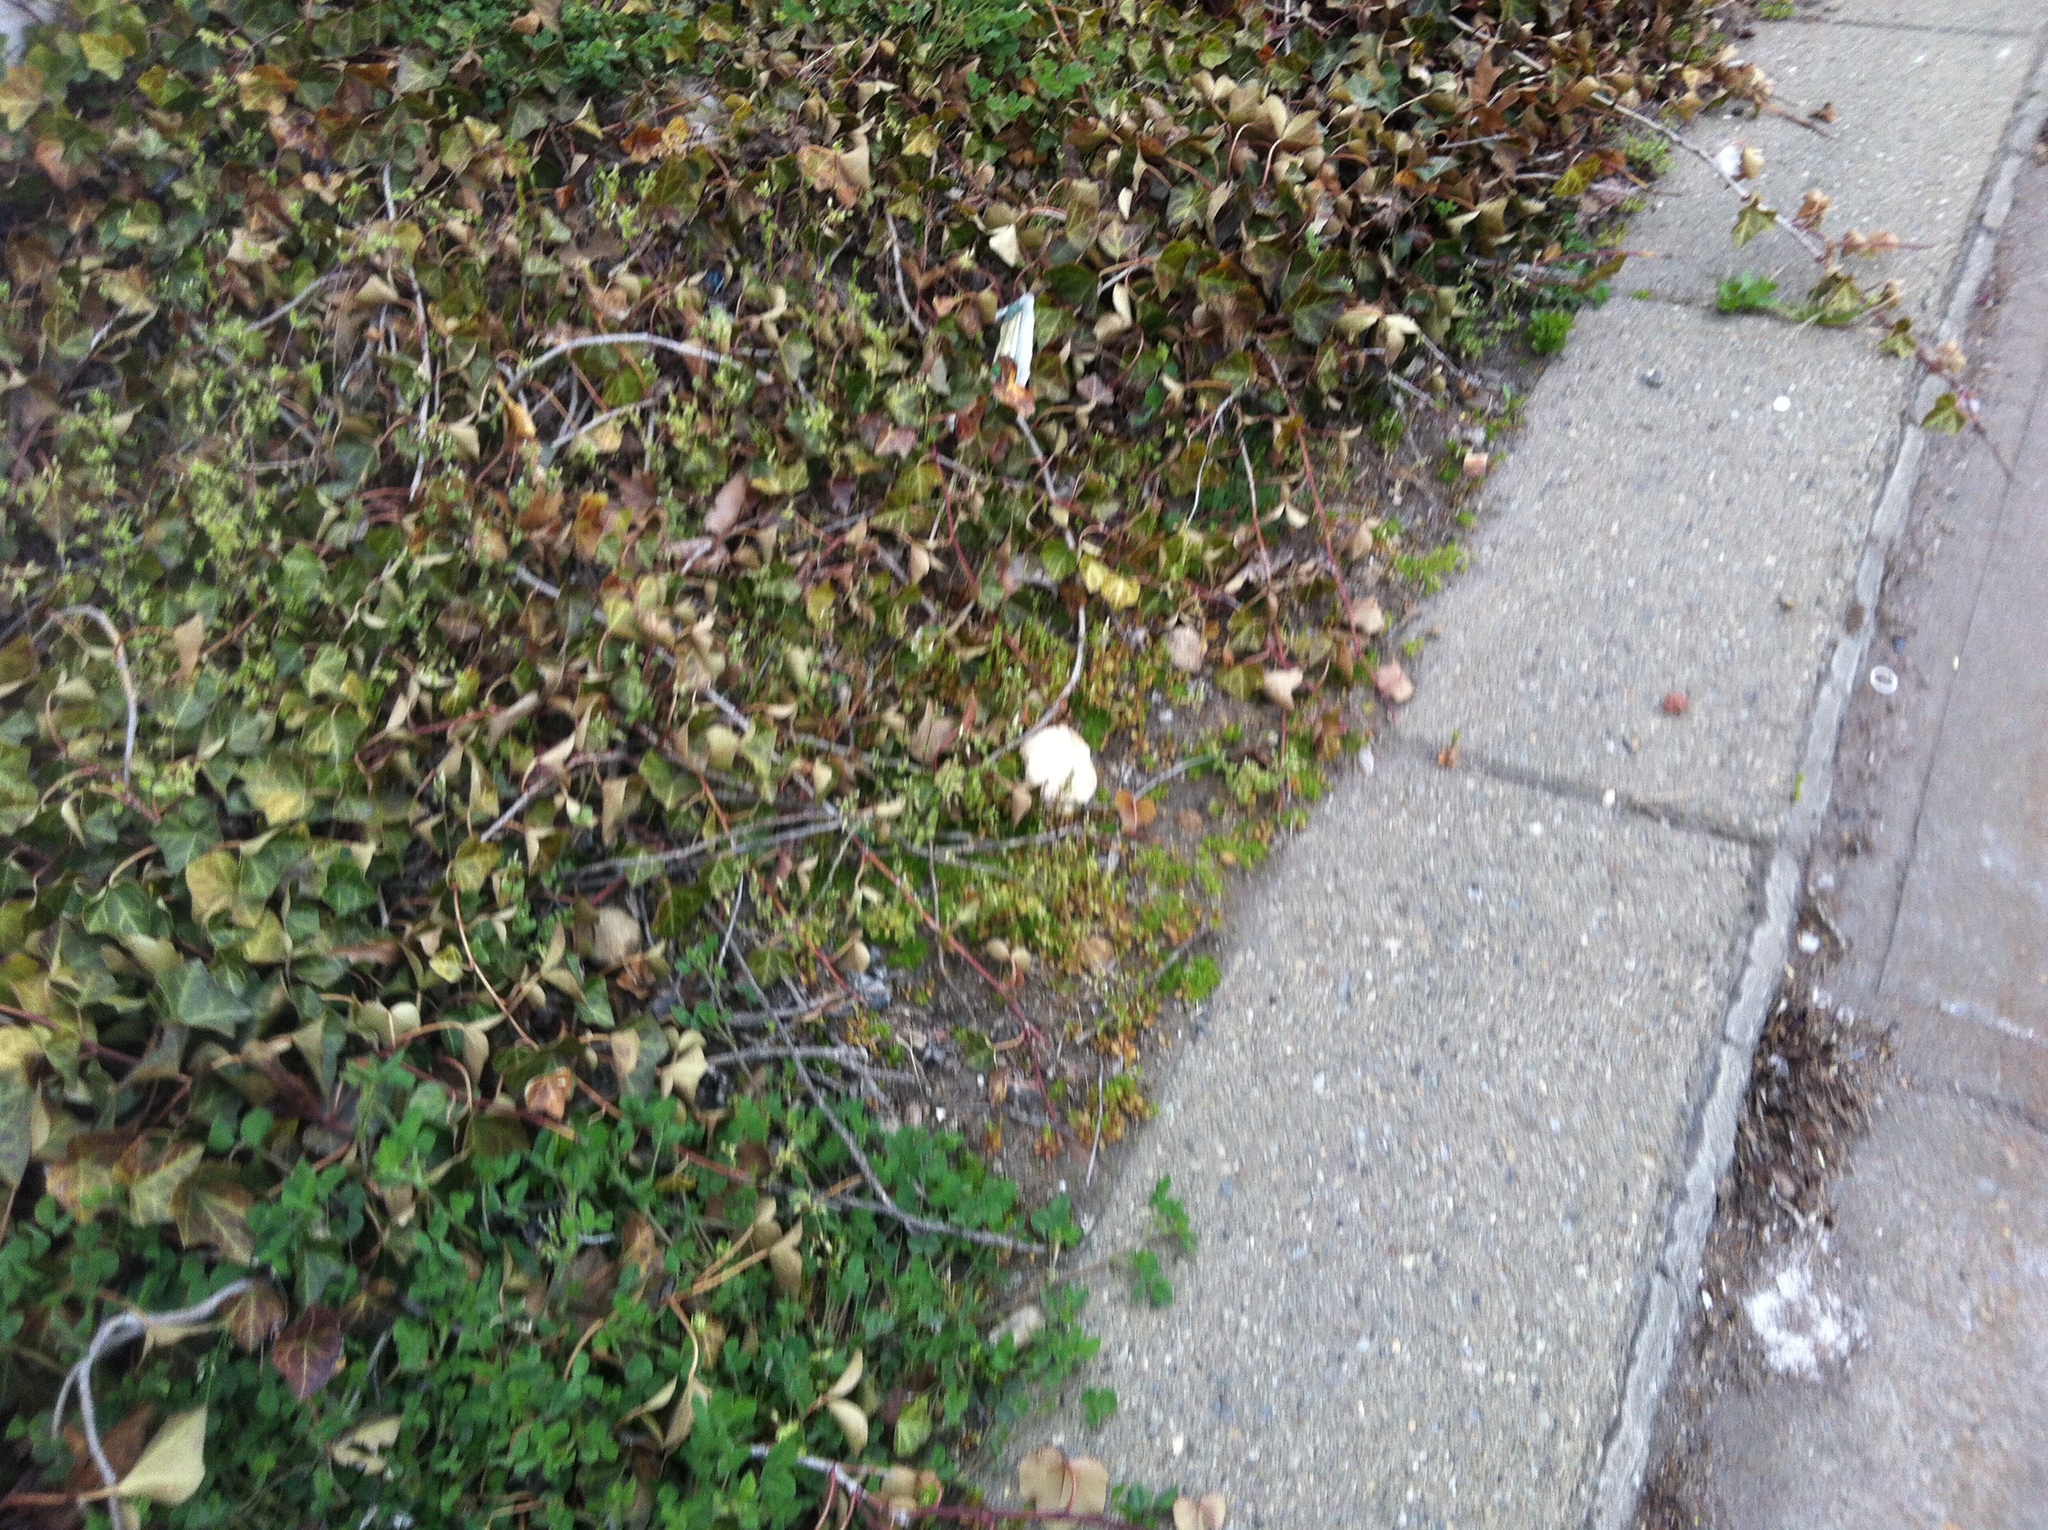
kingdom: Plantae
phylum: Tracheophyta
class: Magnoliopsida
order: Apiales
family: Araliaceae
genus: Hedera
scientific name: Hedera helix
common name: Ivy
